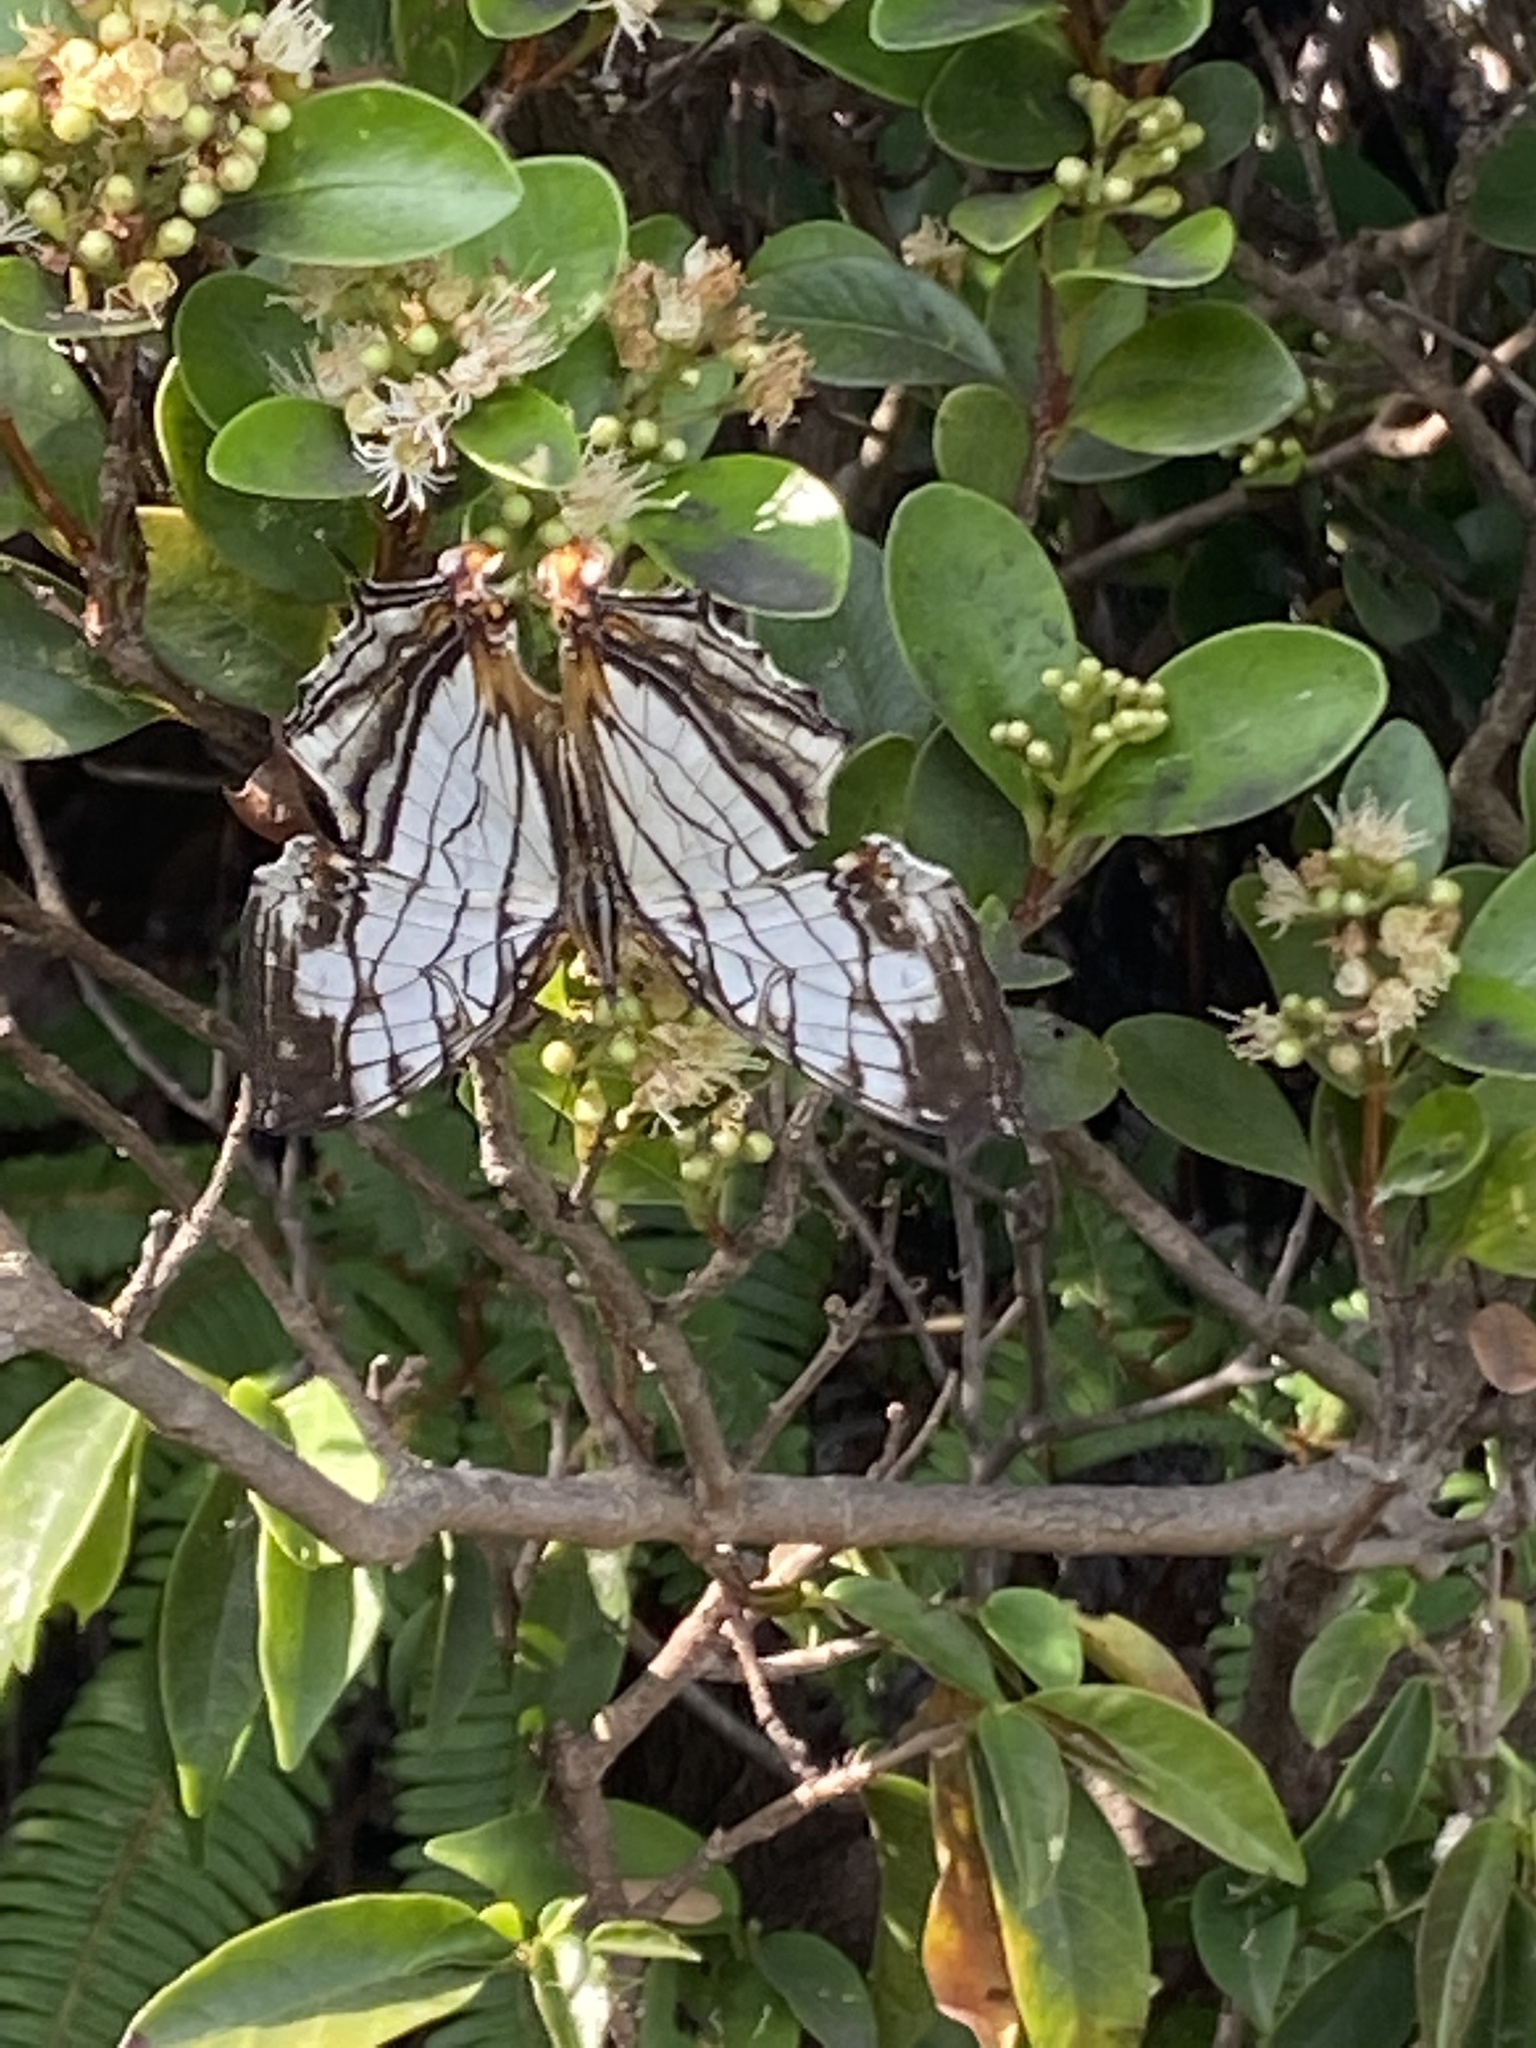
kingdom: Animalia
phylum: Arthropoda
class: Insecta
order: Lepidoptera
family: Nymphalidae
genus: Cyrestis
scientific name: Cyrestis thyodamas
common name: Common mapwing
